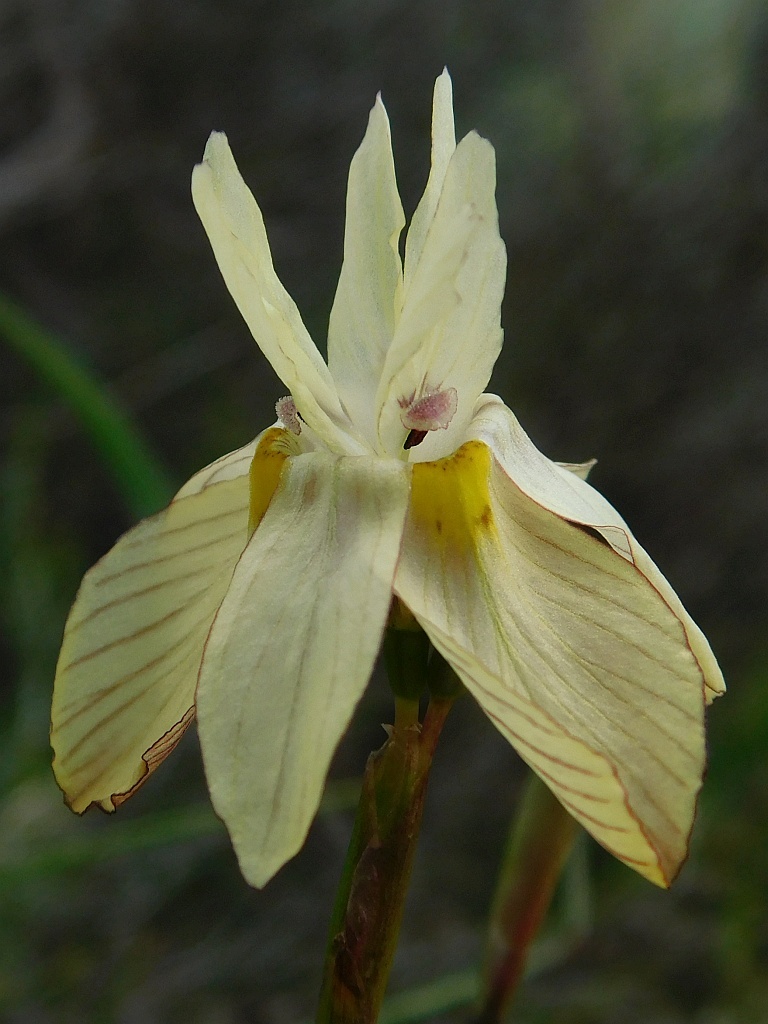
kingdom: Plantae
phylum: Tracheophyta
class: Liliopsida
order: Asparagales
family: Iridaceae
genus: Moraea
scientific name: Moraea gawleri
